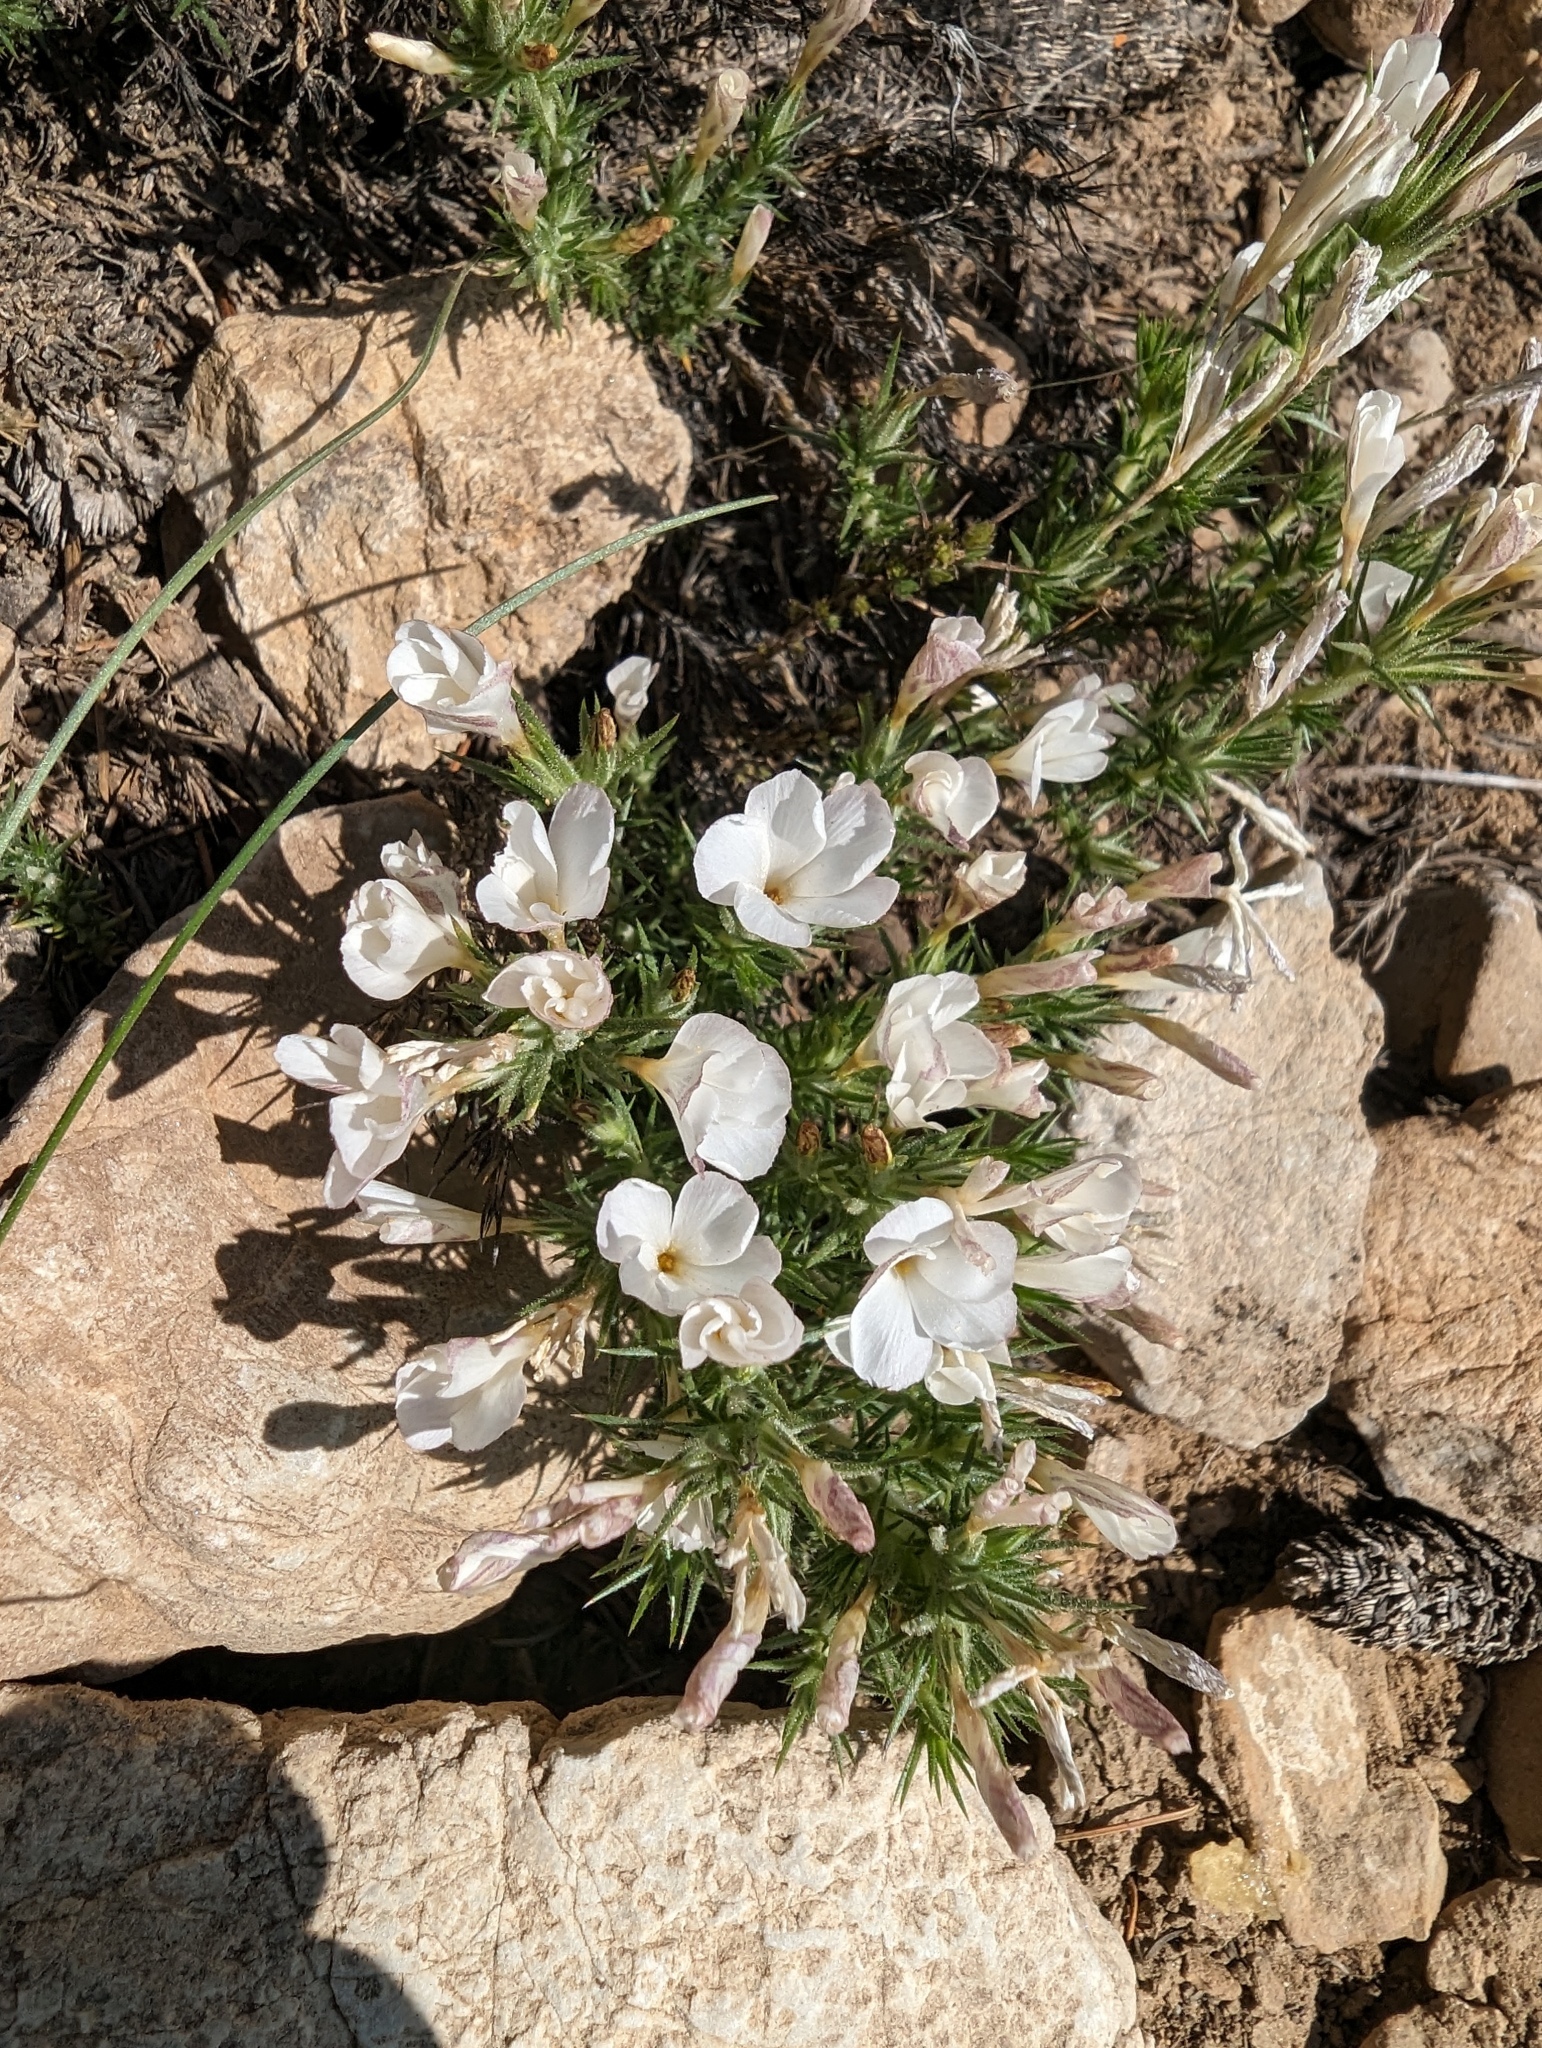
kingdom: Plantae
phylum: Tracheophyta
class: Magnoliopsida
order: Ericales
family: Polemoniaceae
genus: Linanthus
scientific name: Linanthus pungens
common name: Granite prickly phlox
